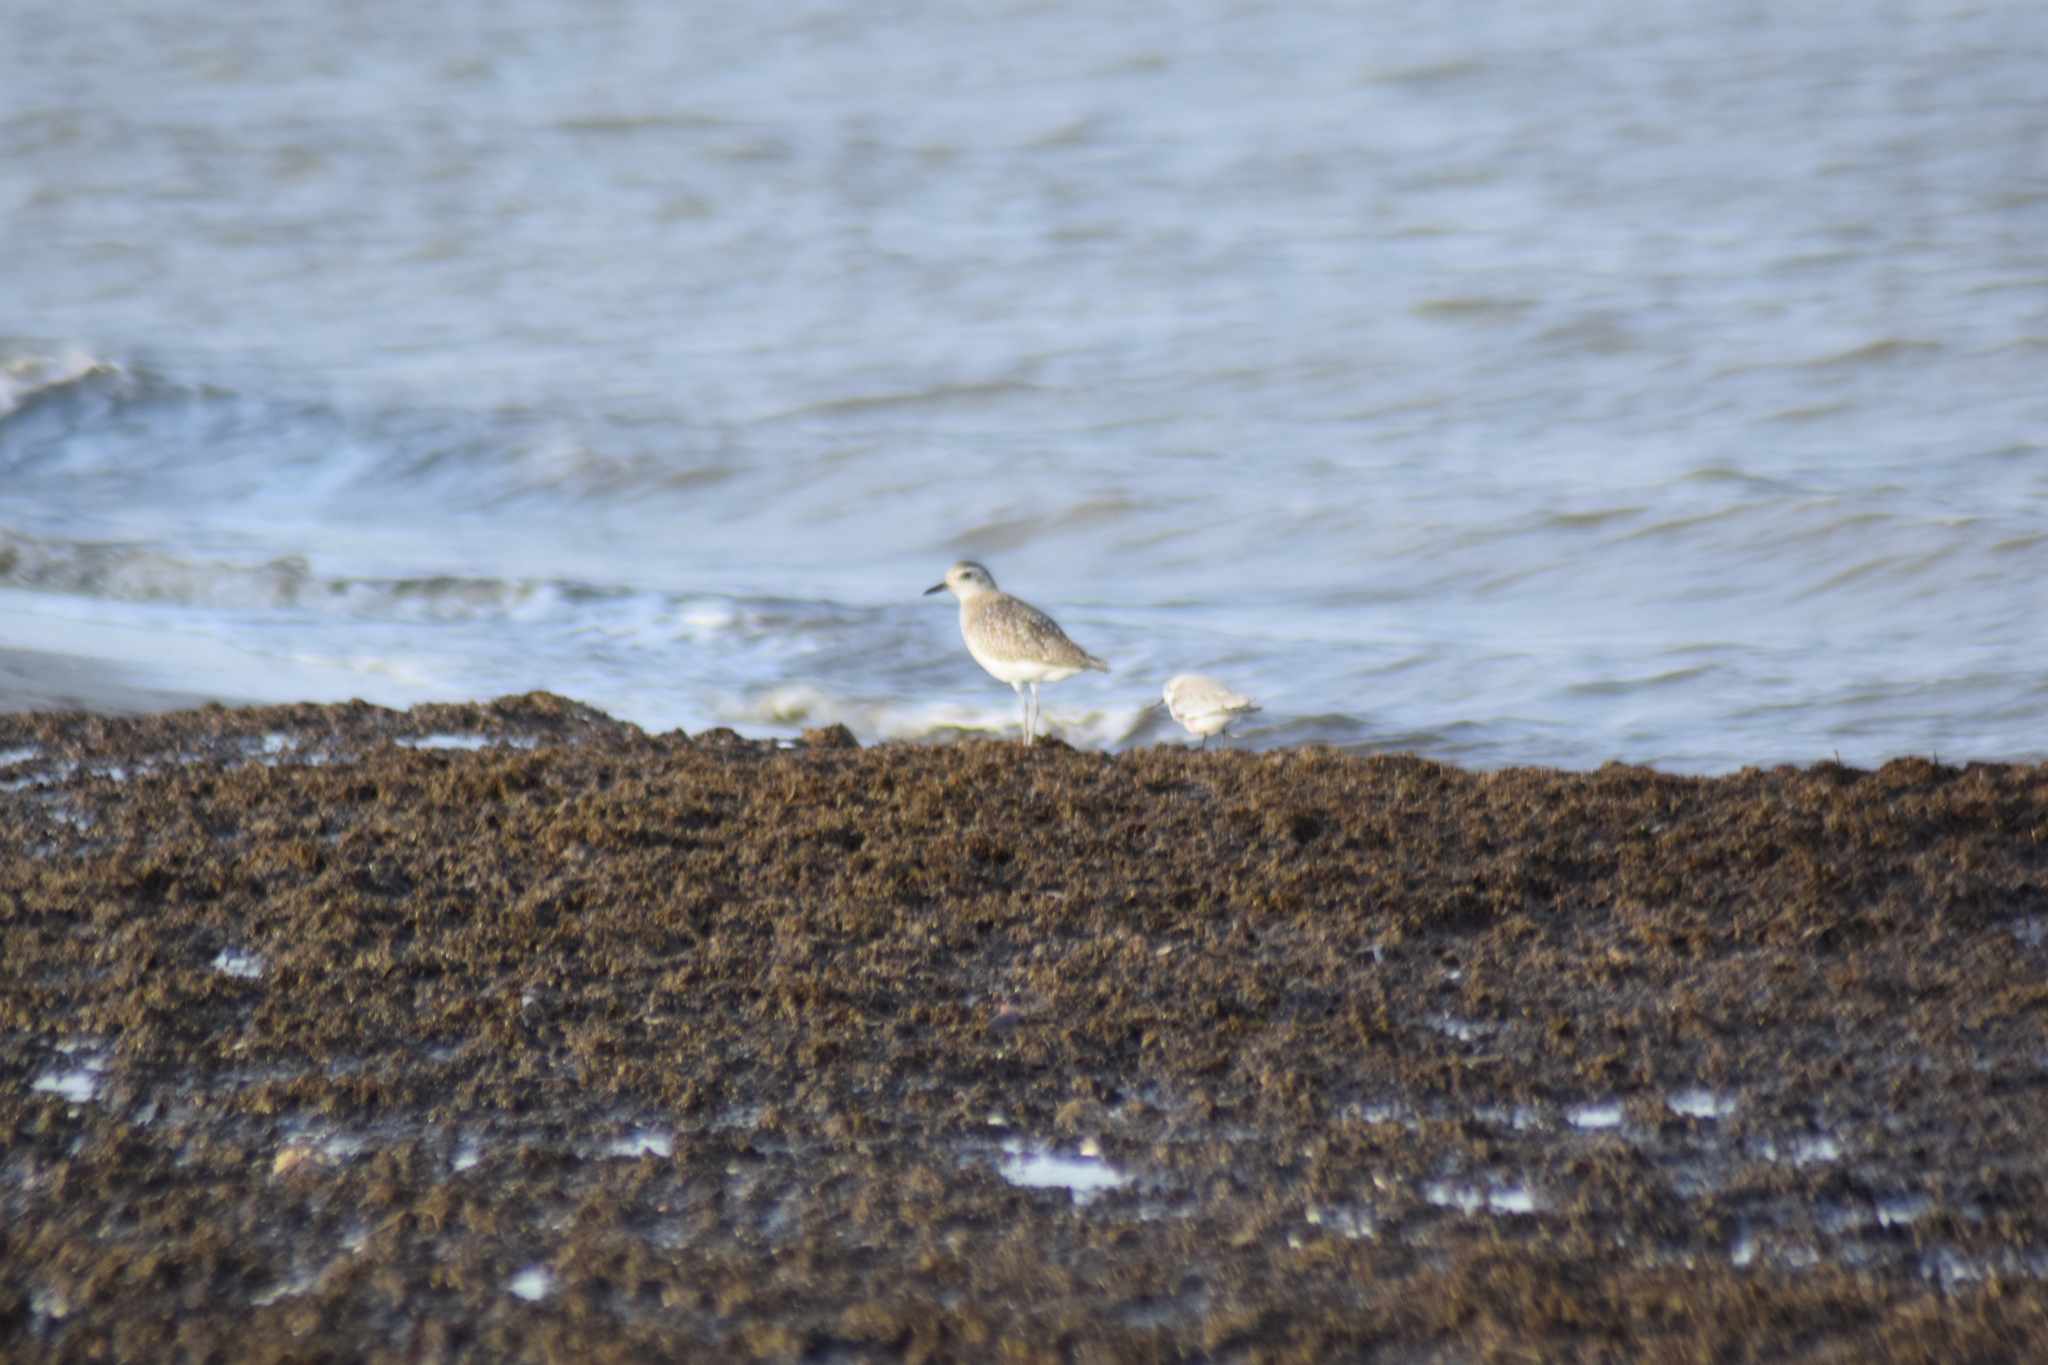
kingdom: Animalia
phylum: Chordata
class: Aves
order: Charadriiformes
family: Charadriidae
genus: Pluvialis
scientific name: Pluvialis squatarola
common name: Grey plover
